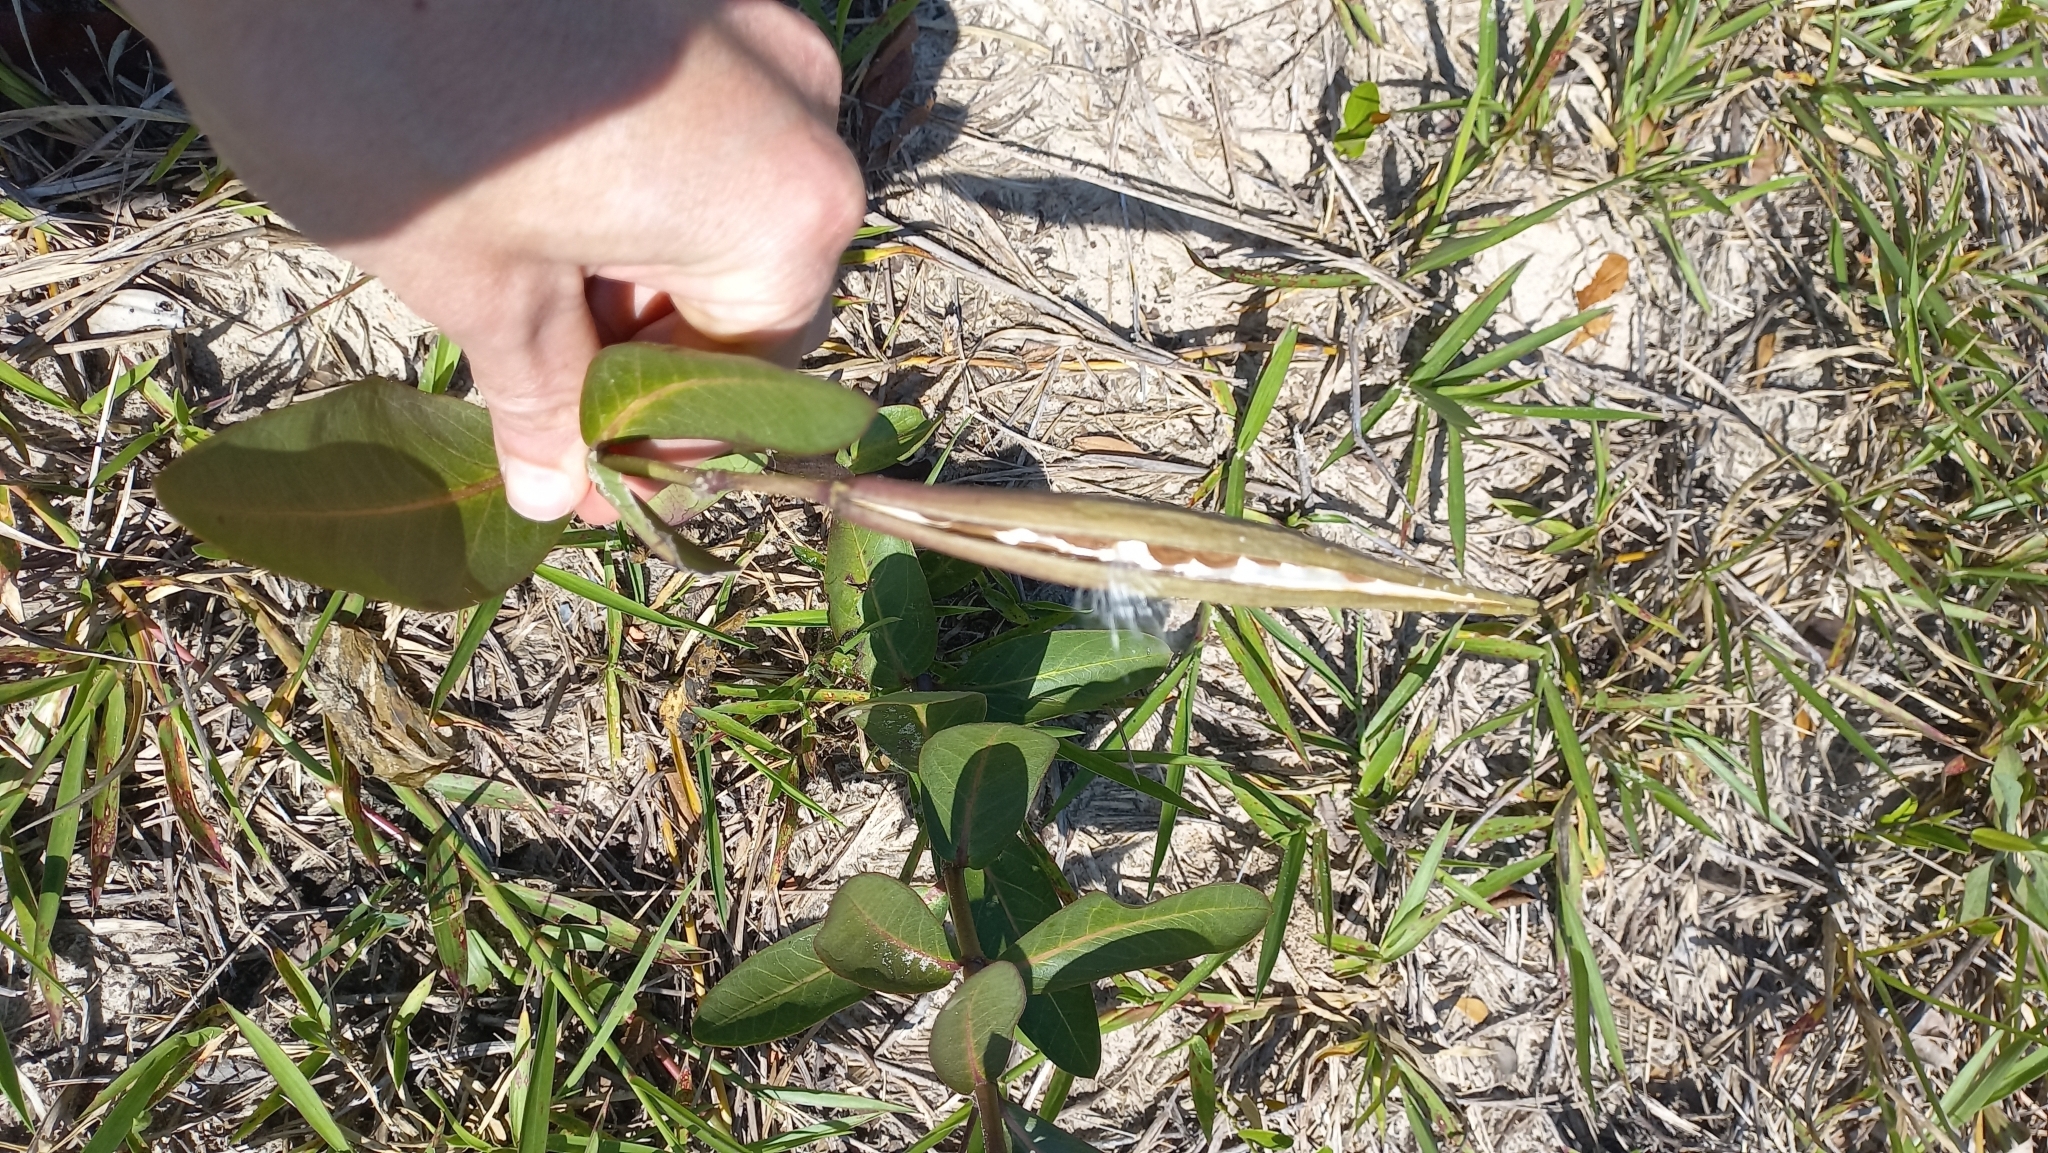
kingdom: Plantae
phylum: Tracheophyta
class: Magnoliopsida
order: Gentianales
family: Apocynaceae
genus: Asclepias
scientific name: Asclepias mellodora
